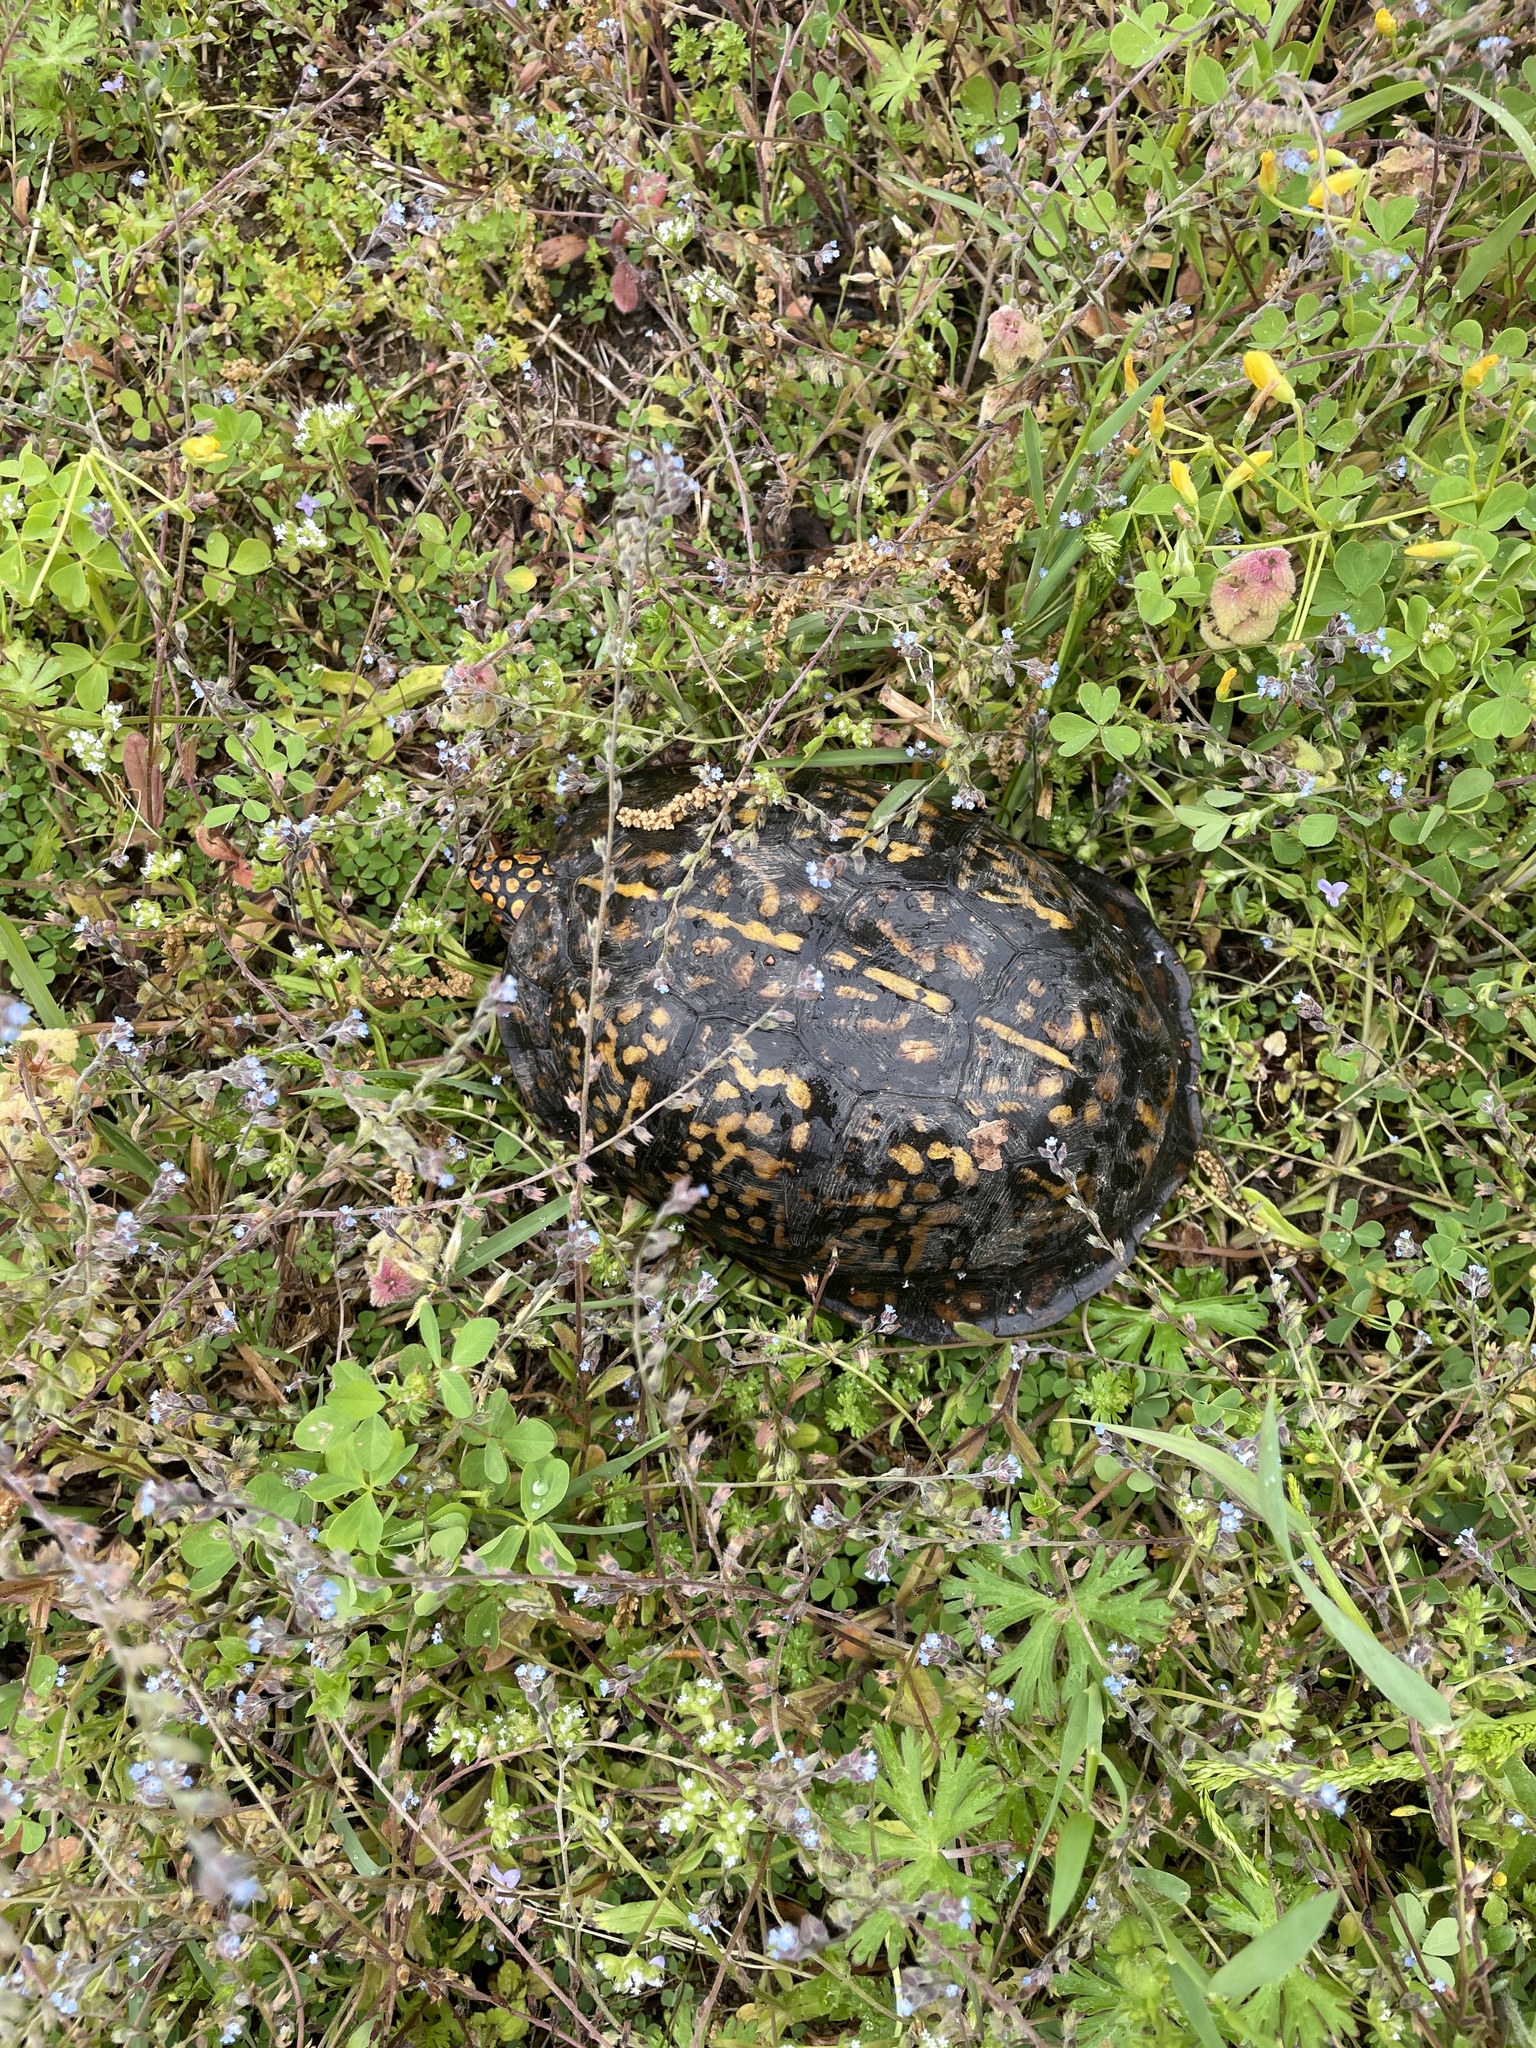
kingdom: Animalia
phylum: Chordata
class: Testudines
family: Emydidae
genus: Terrapene
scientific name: Terrapene carolina
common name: Common box turtle
